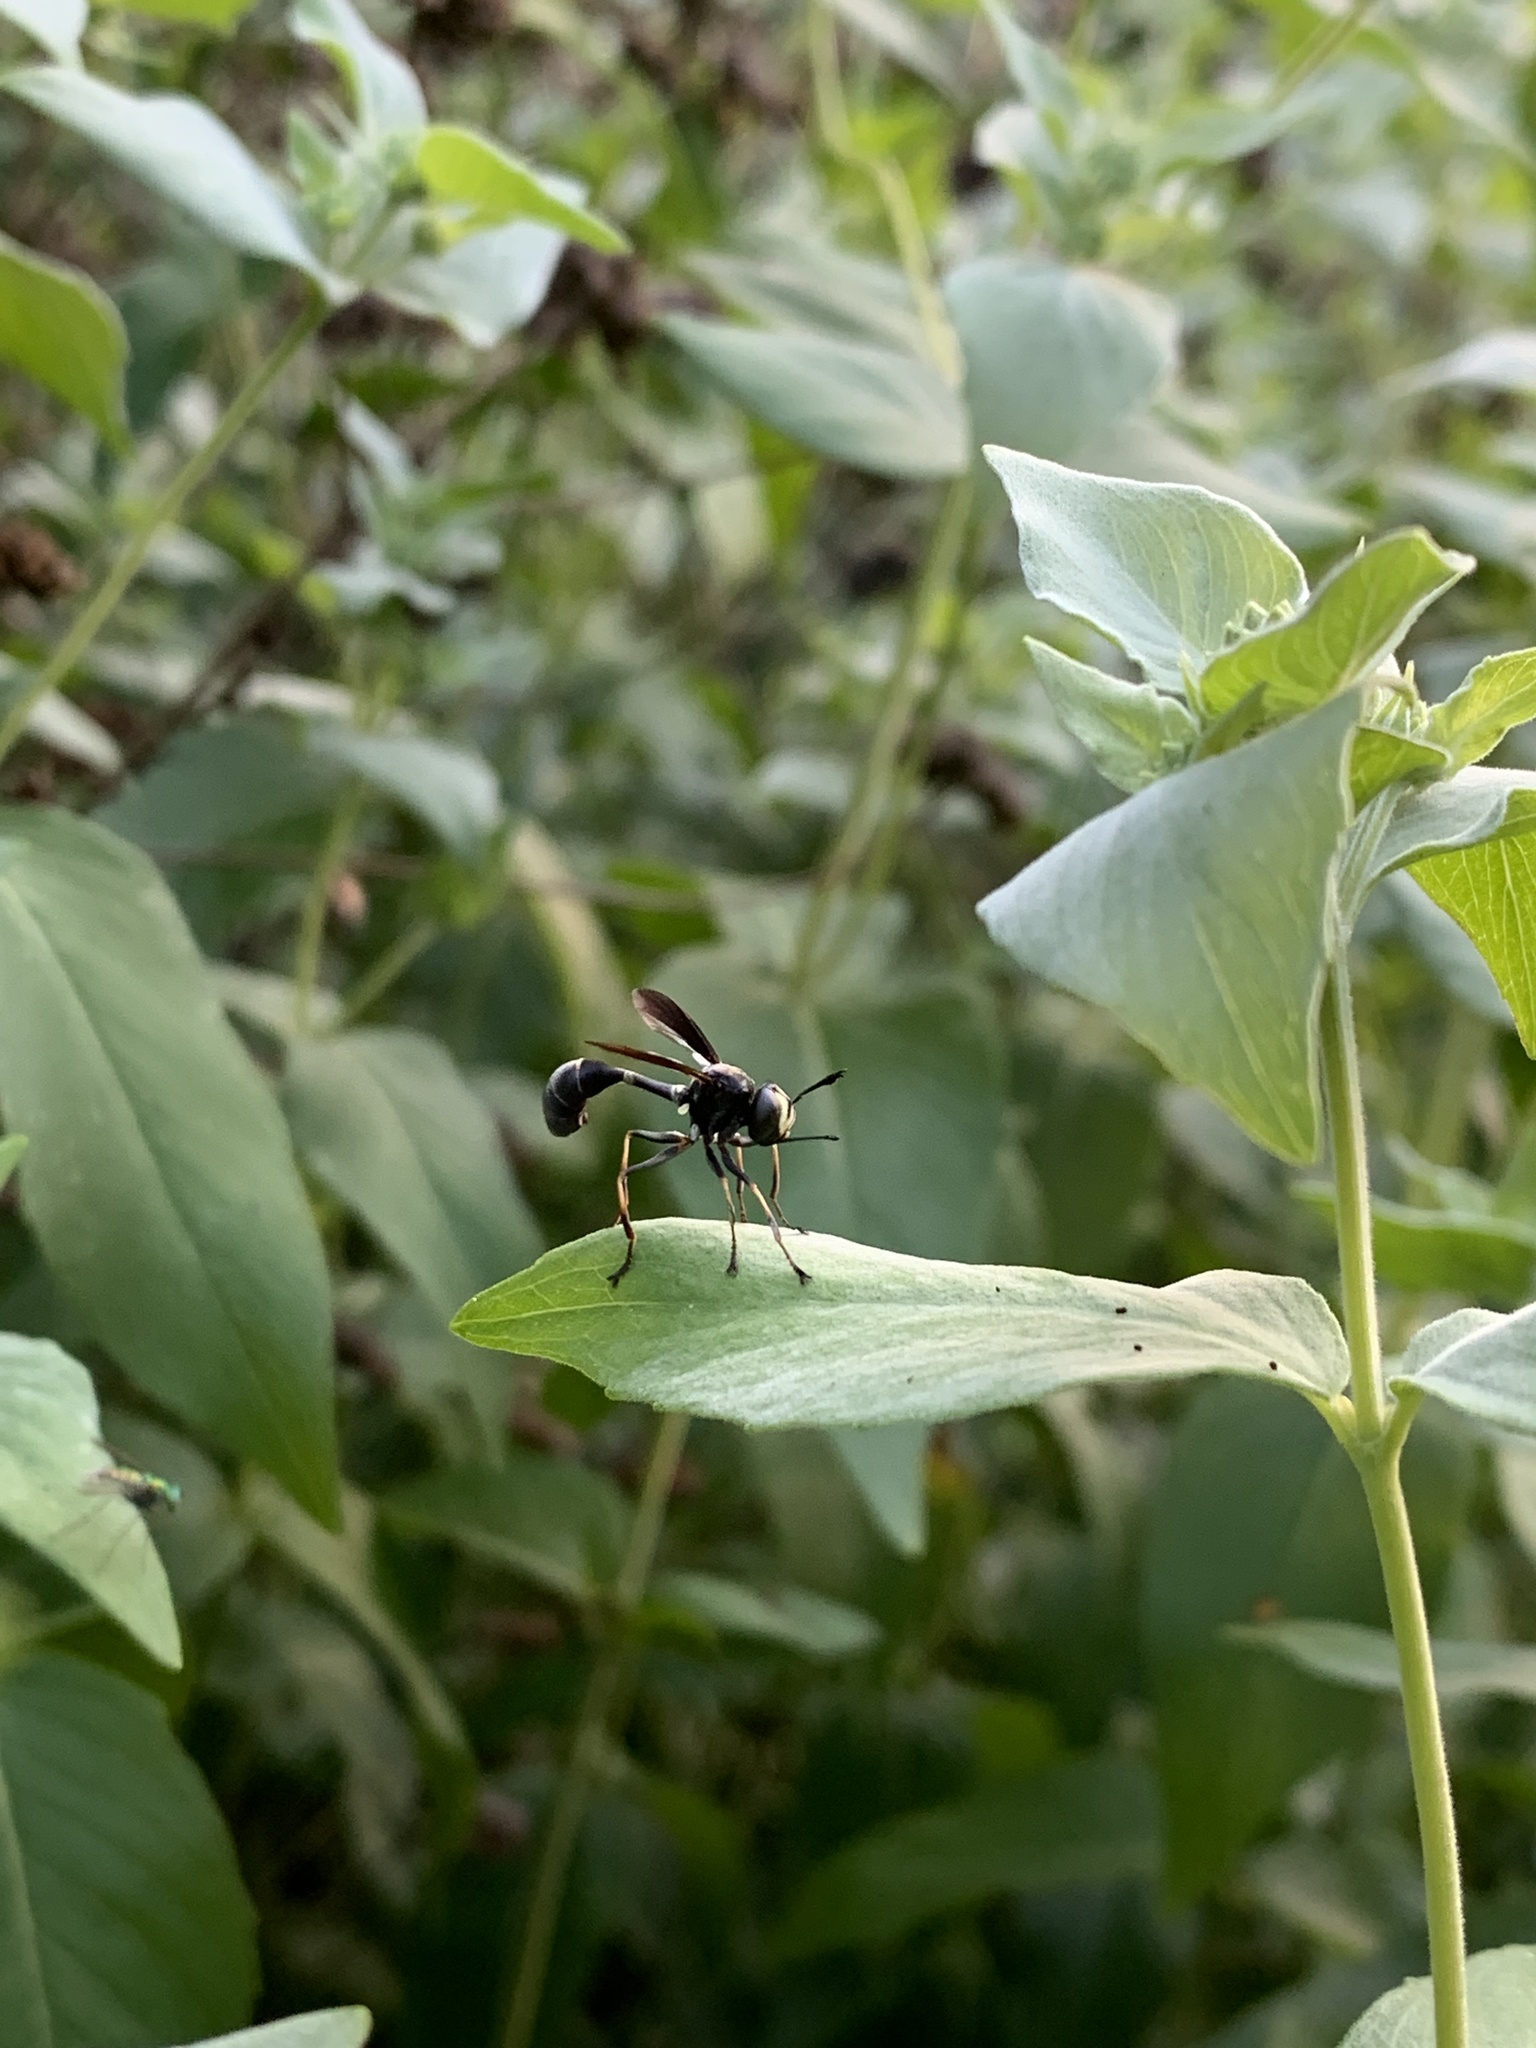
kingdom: Animalia
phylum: Arthropoda
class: Insecta
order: Diptera
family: Conopidae
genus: Physocephala
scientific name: Physocephala tibialis
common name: Common eastern physocephala
